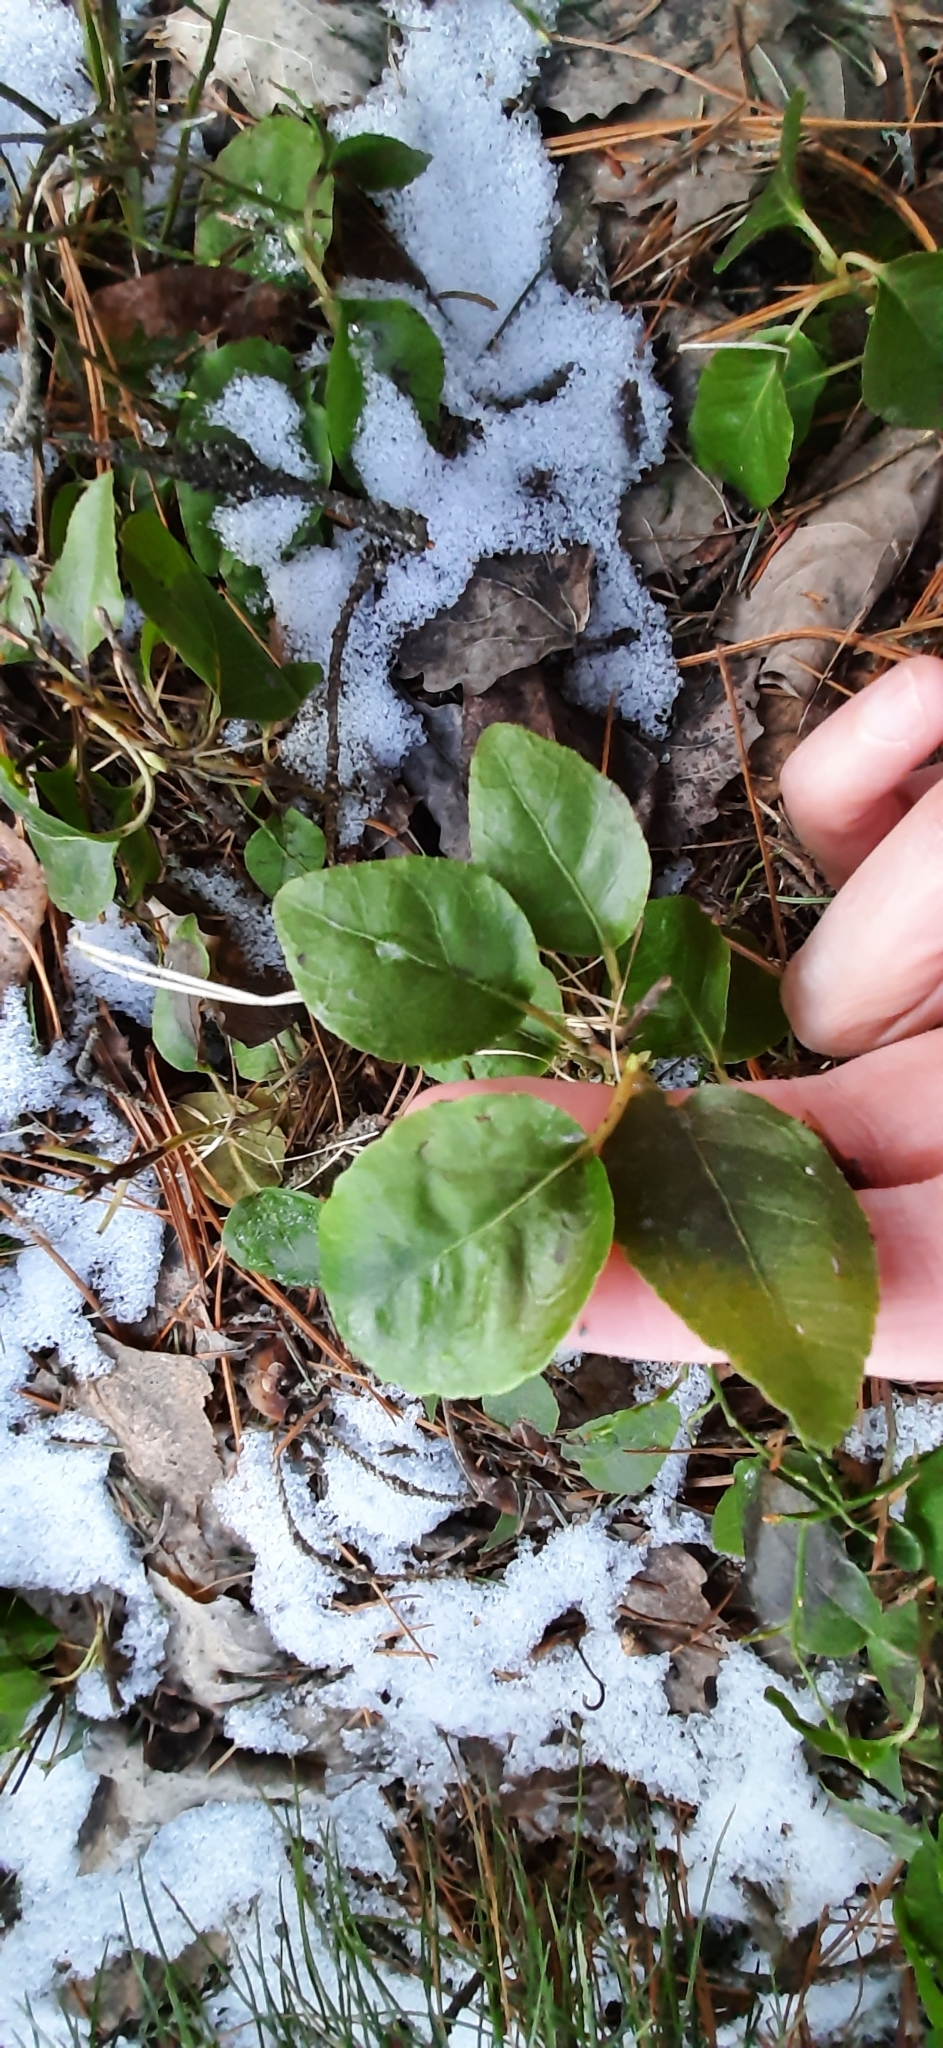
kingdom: Plantae
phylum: Tracheophyta
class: Magnoliopsida
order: Ericales
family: Ericaceae
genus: Orthilia
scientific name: Orthilia secunda
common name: One-sided orthilia
